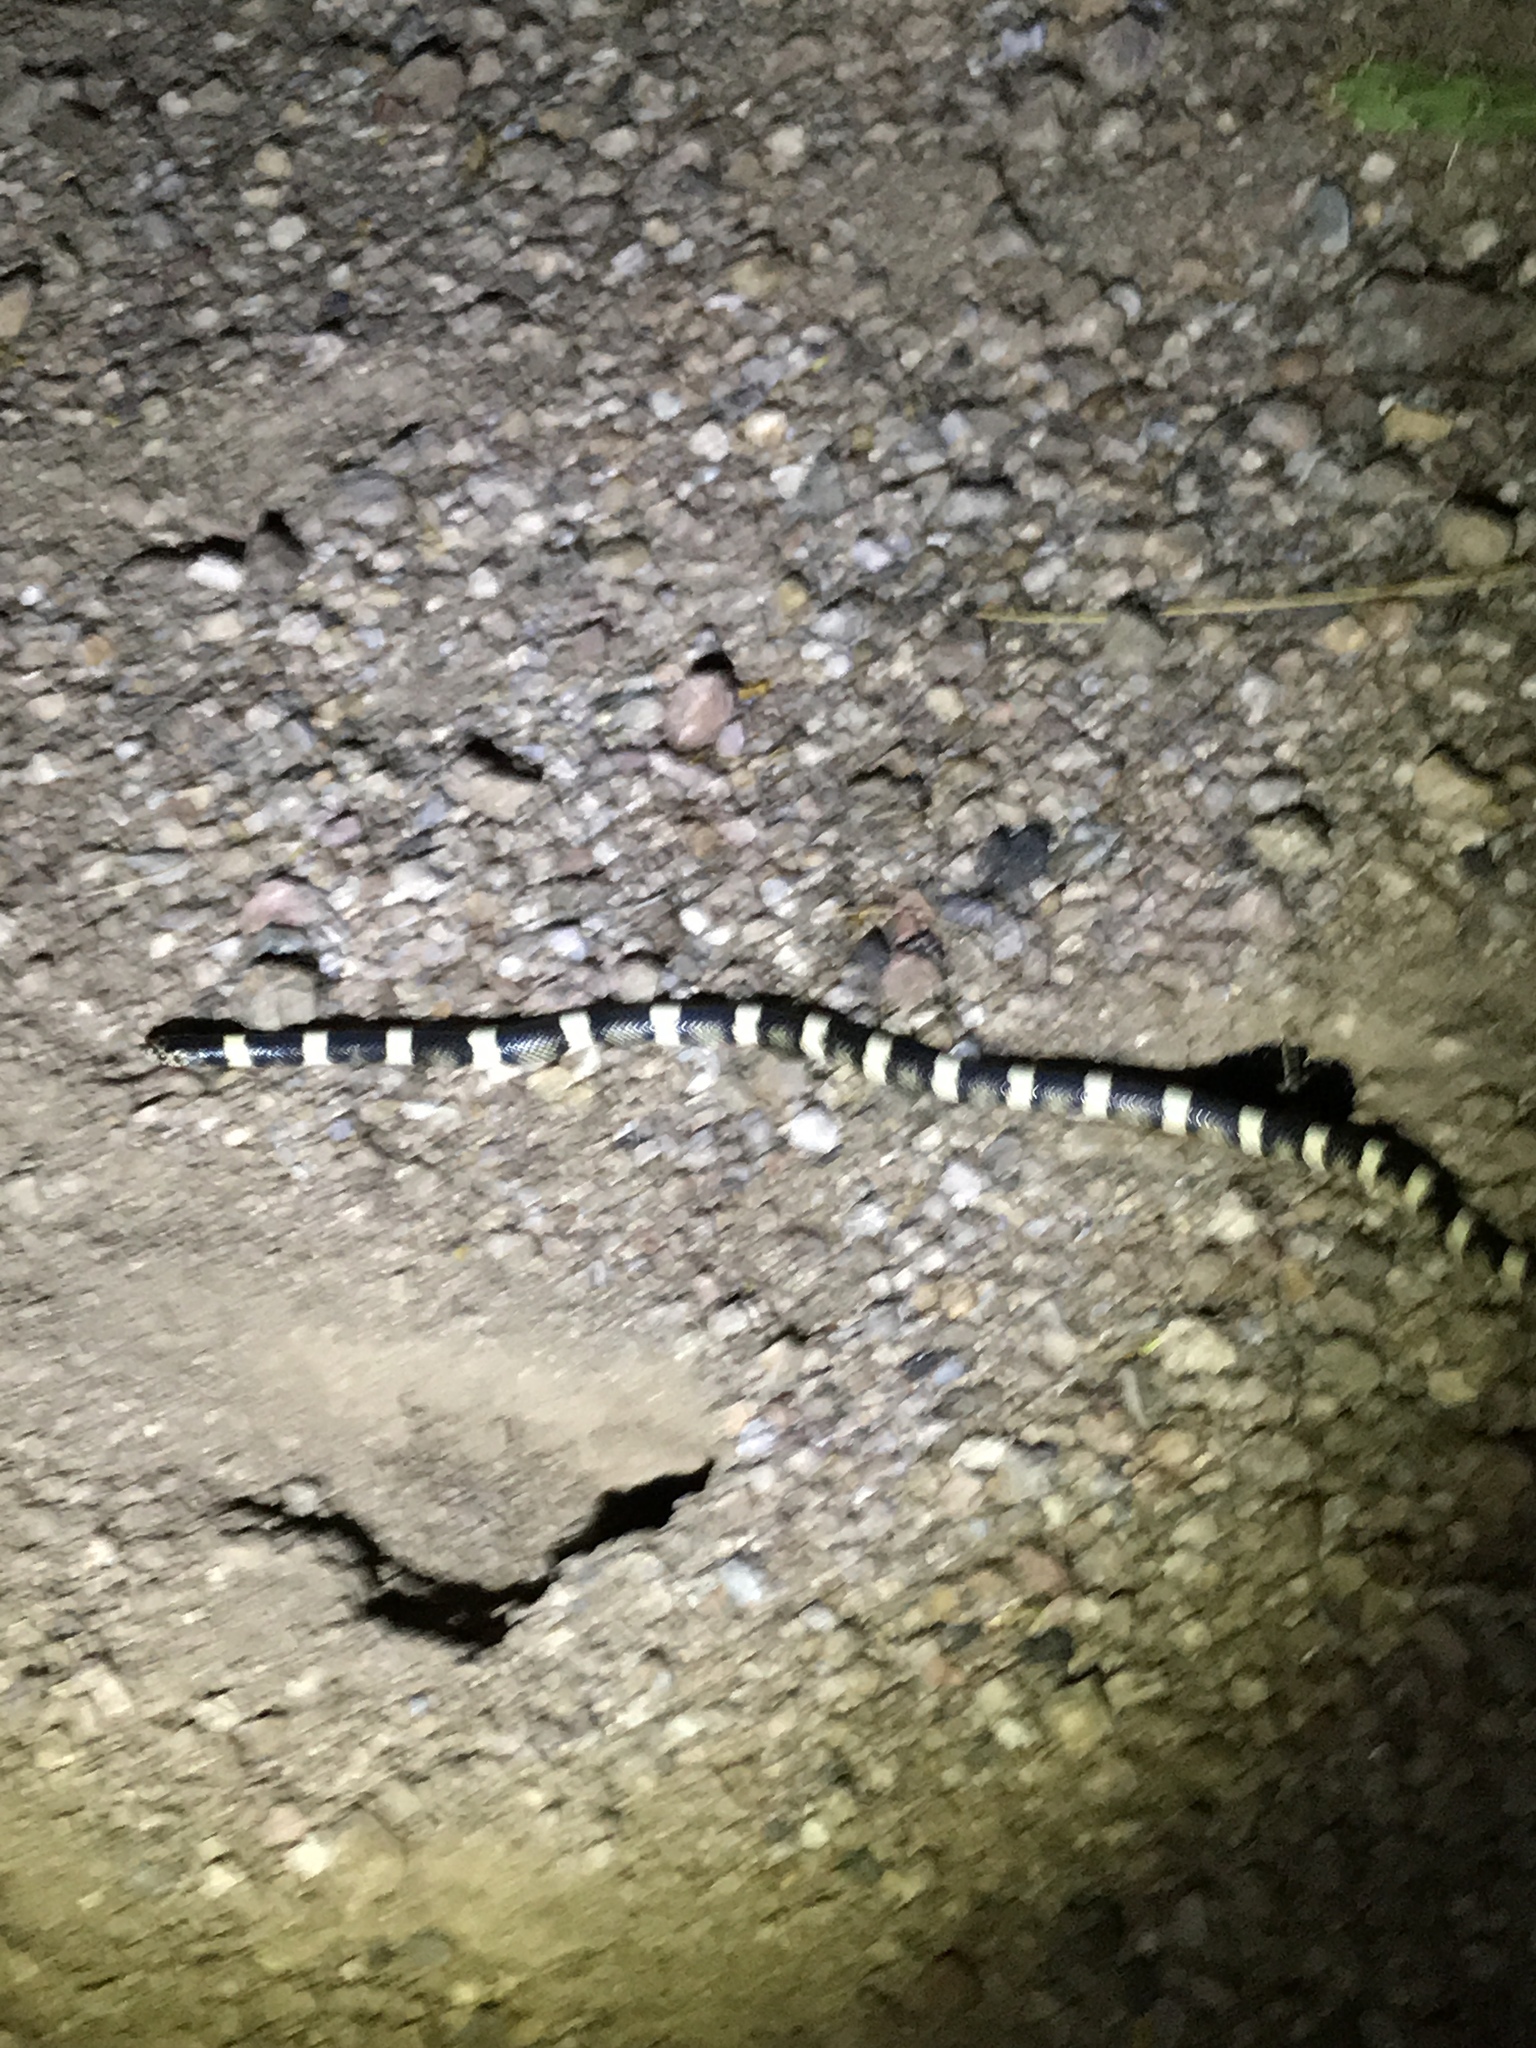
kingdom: Animalia
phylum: Chordata
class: Squamata
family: Colubridae
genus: Rhinocheilus
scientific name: Rhinocheilus lecontei
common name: Longnose snake
